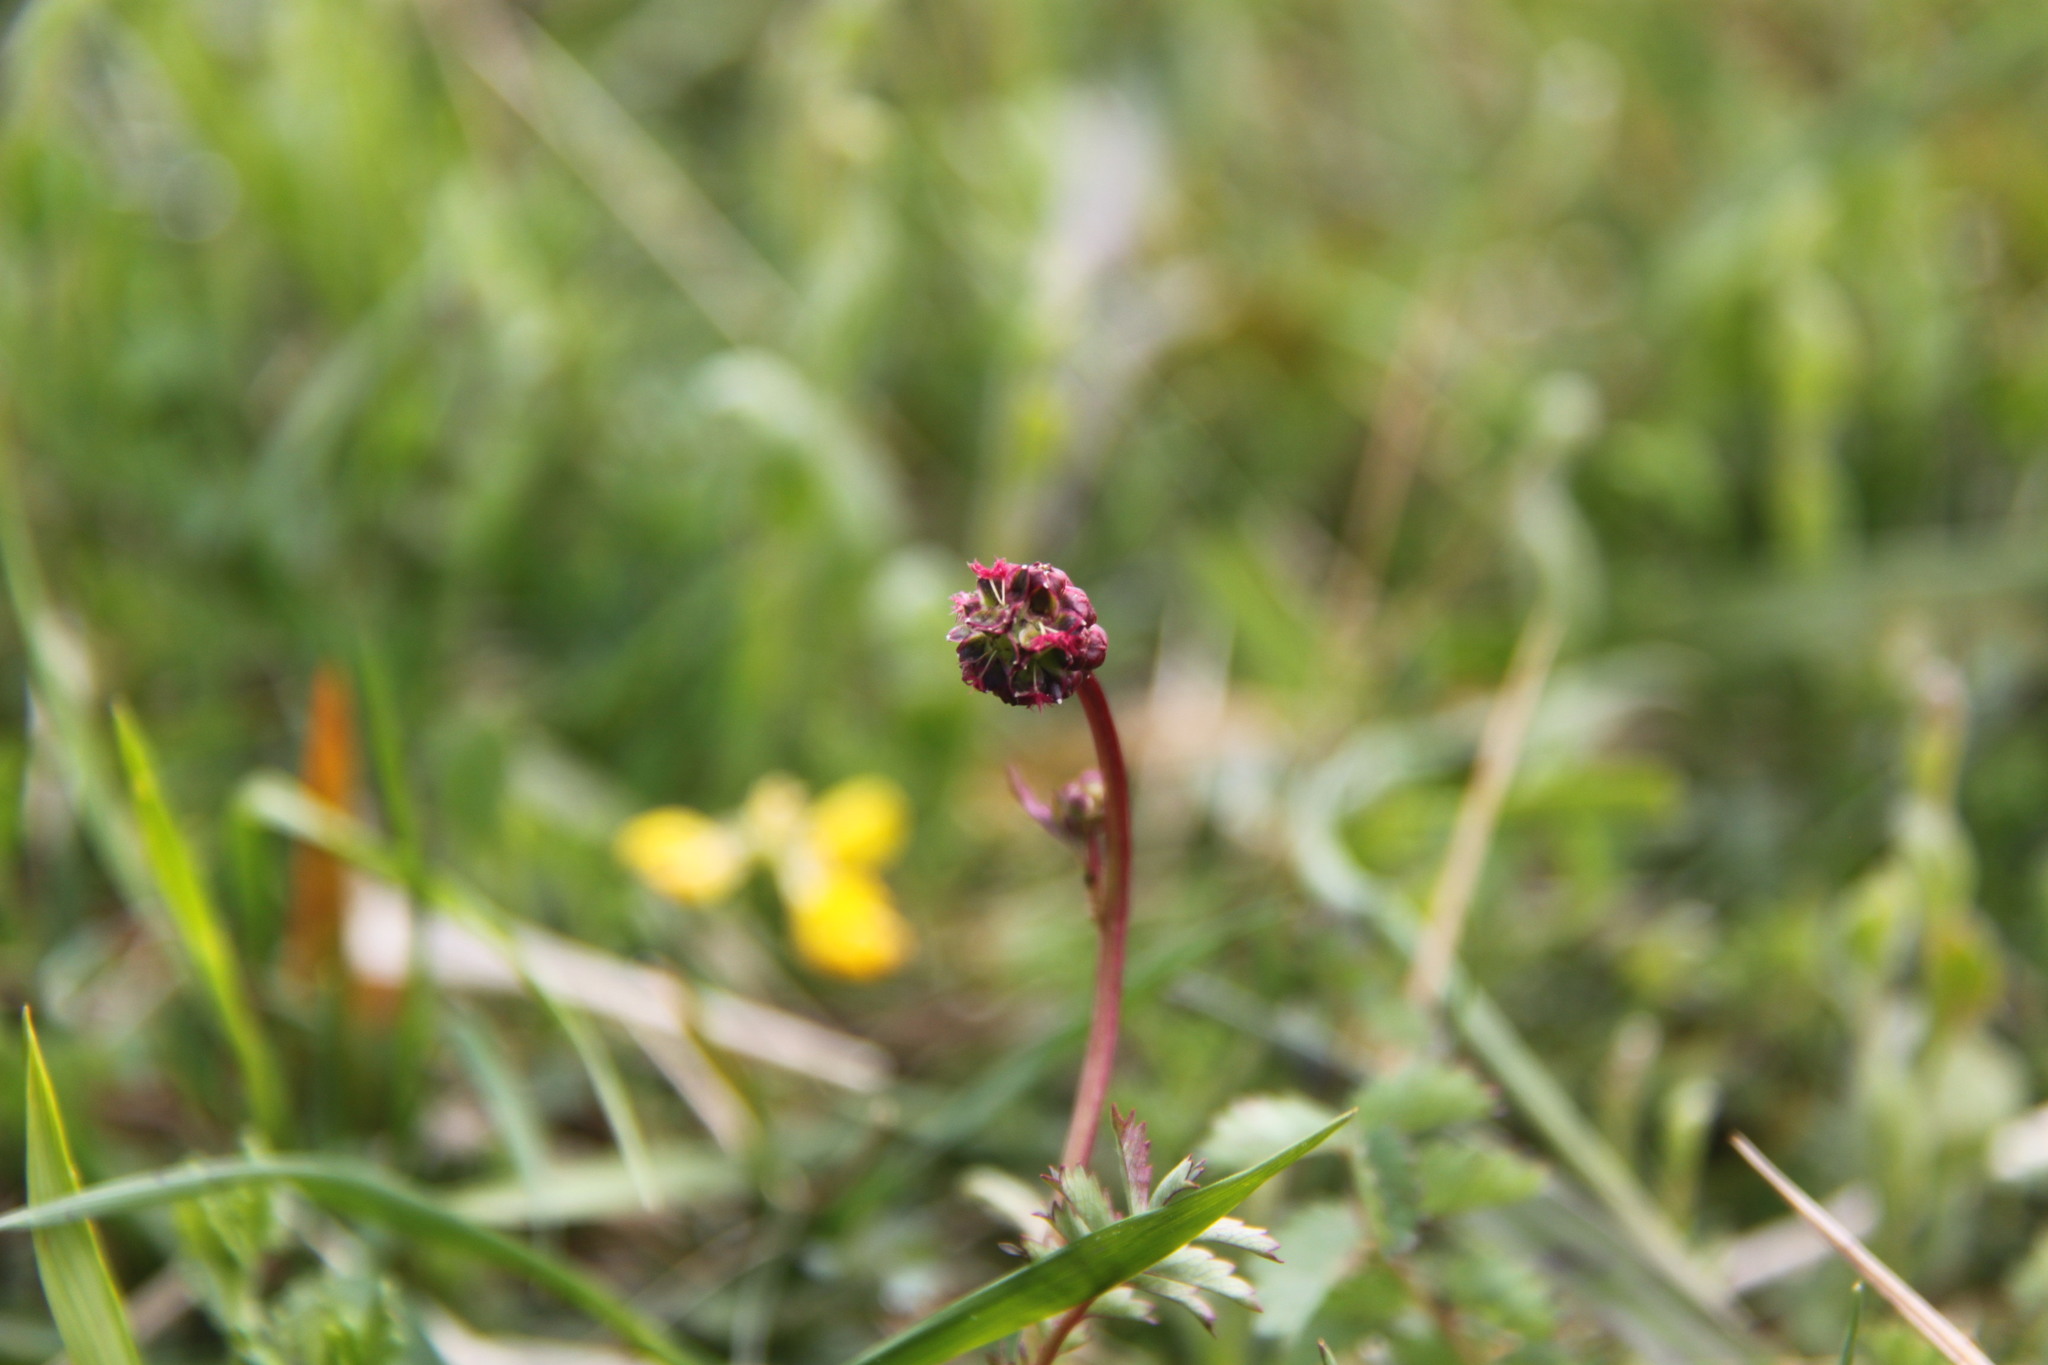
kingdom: Plantae
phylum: Tracheophyta
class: Magnoliopsida
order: Rosales
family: Rosaceae
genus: Poterium
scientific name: Poterium sanguisorba
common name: Salad burnet
